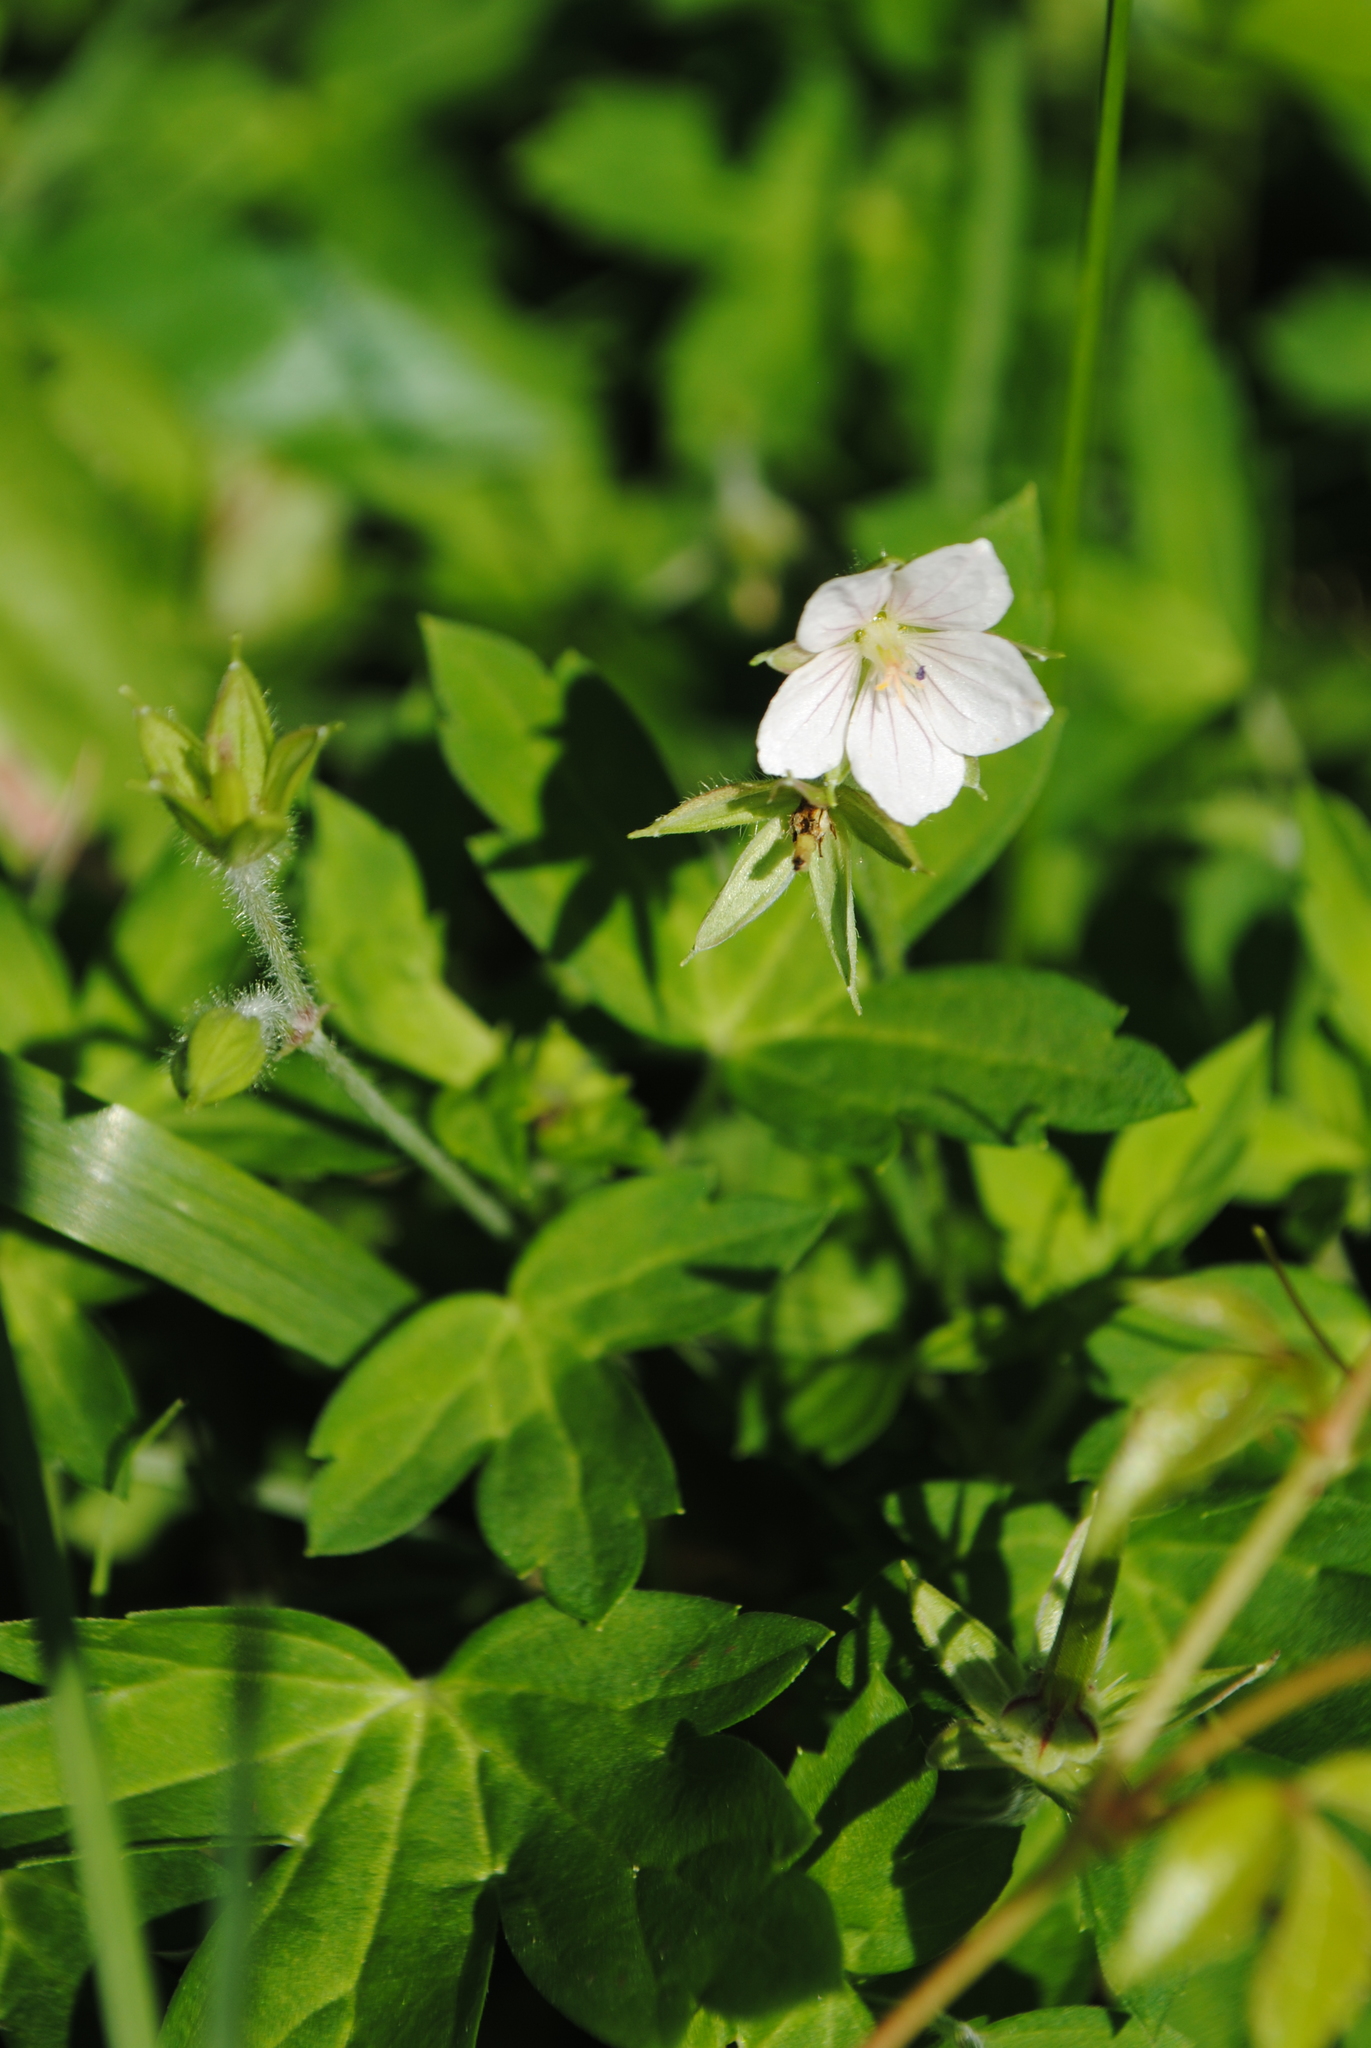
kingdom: Plantae
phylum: Tracheophyta
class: Magnoliopsida
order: Geraniales
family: Geraniaceae
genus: Geranium
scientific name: Geranium thunbergii
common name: Dewdrop crane's-bill
